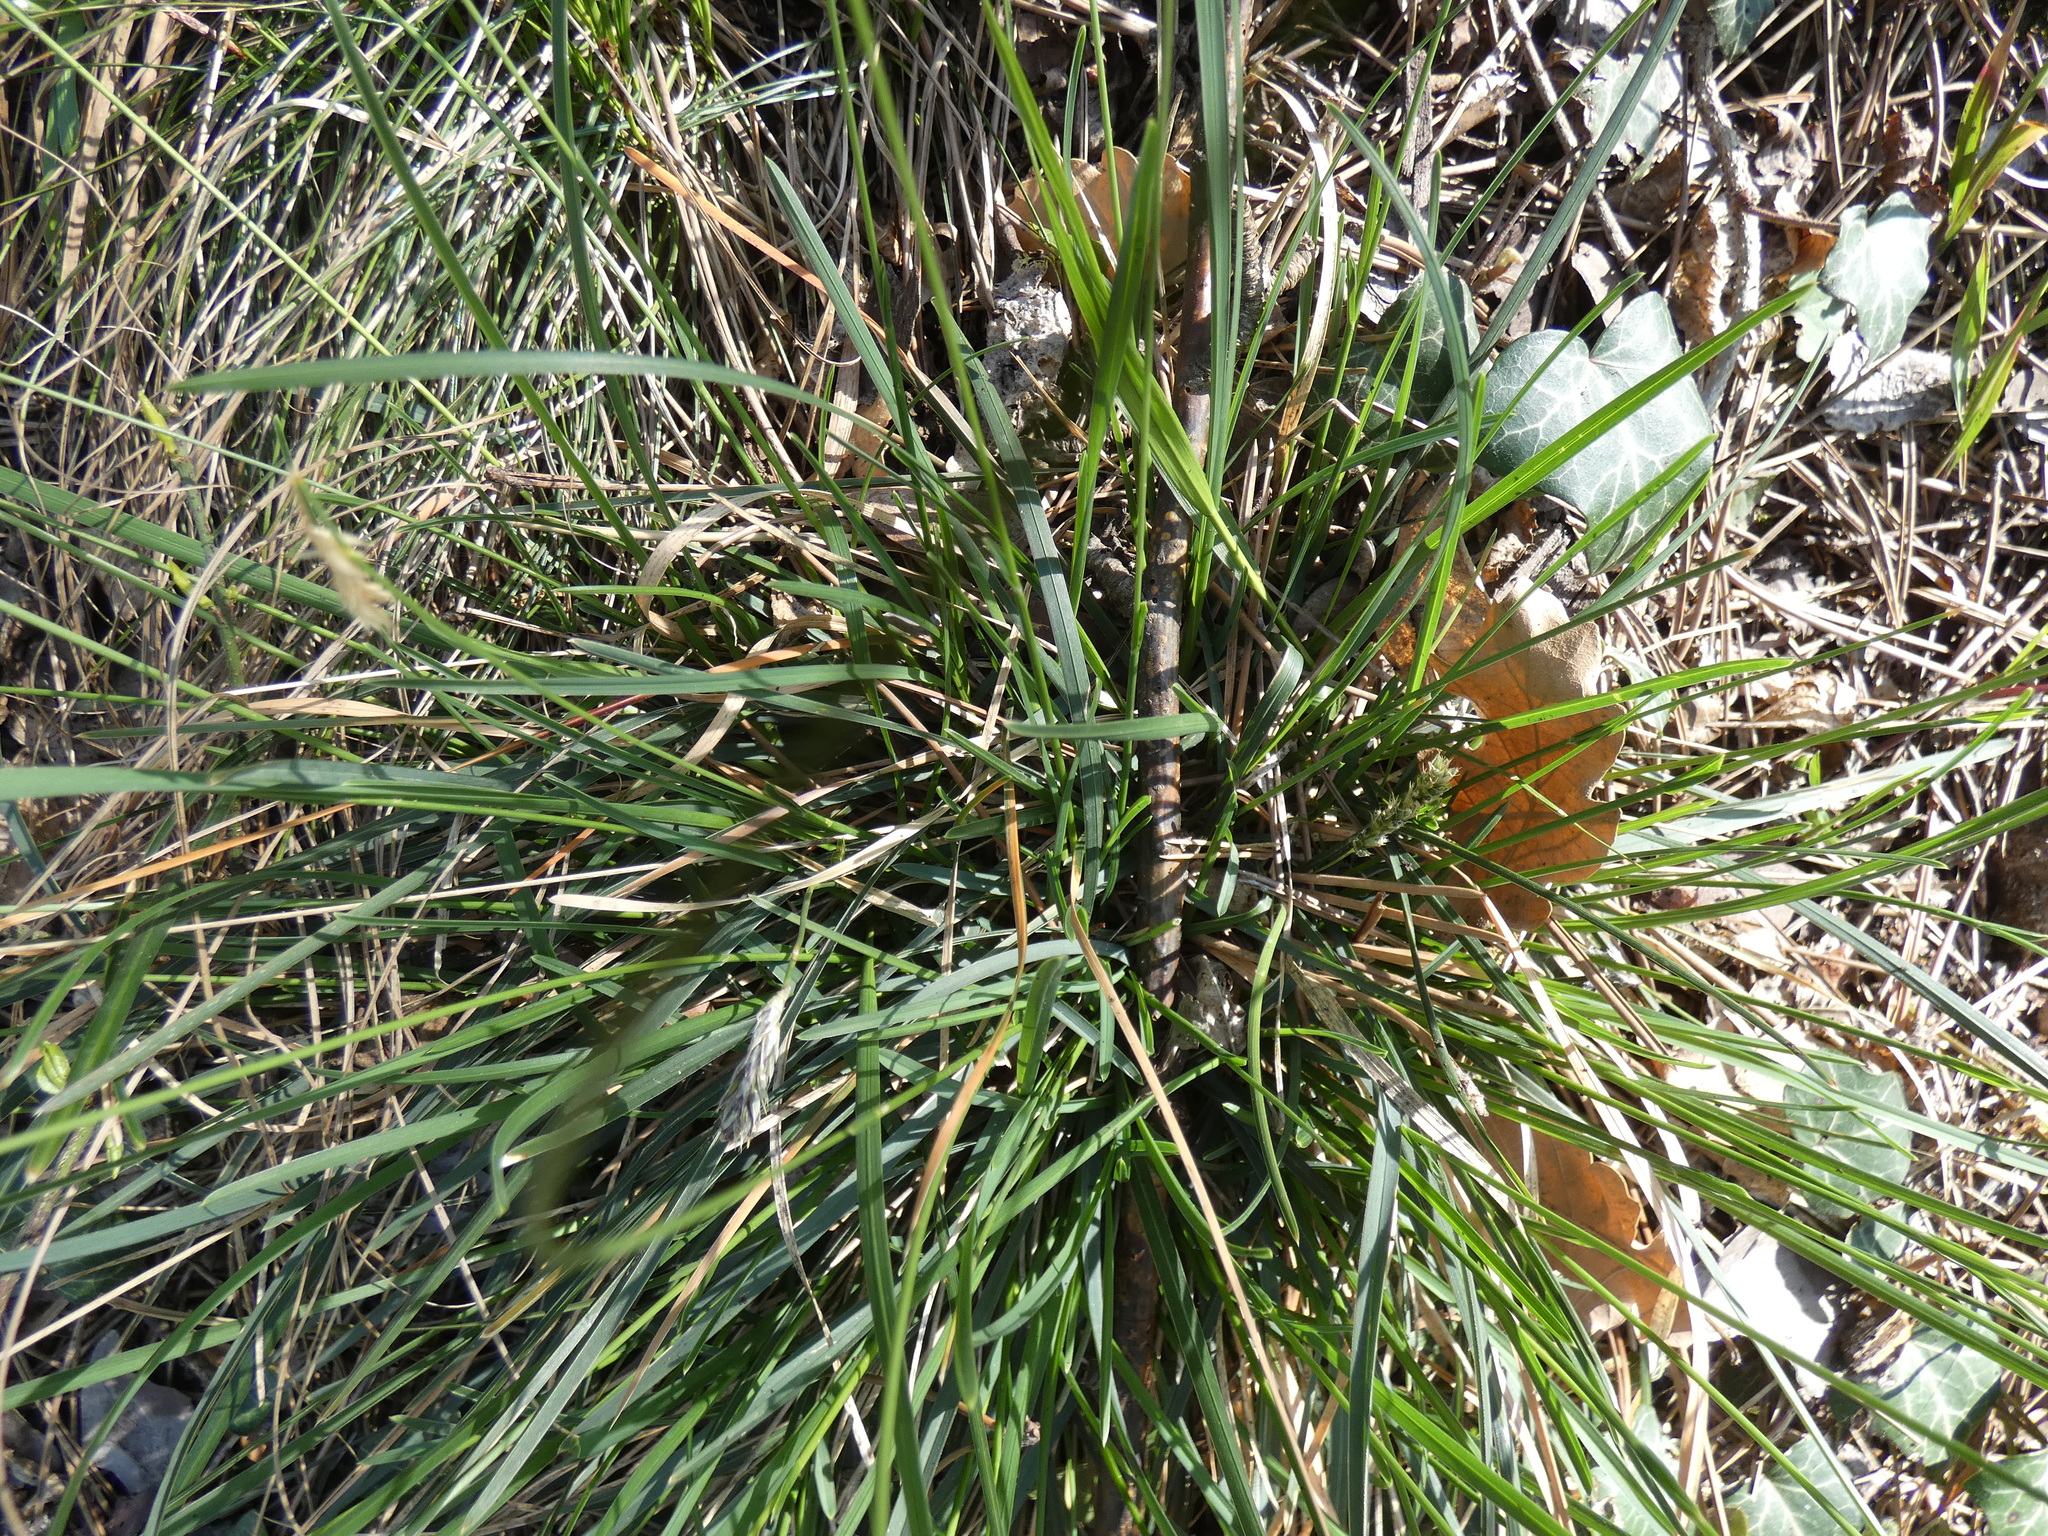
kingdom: Plantae
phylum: Tracheophyta
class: Liliopsida
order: Poales
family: Poaceae
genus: Sesleria
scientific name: Sesleria caerulea
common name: Blue moor-grass
